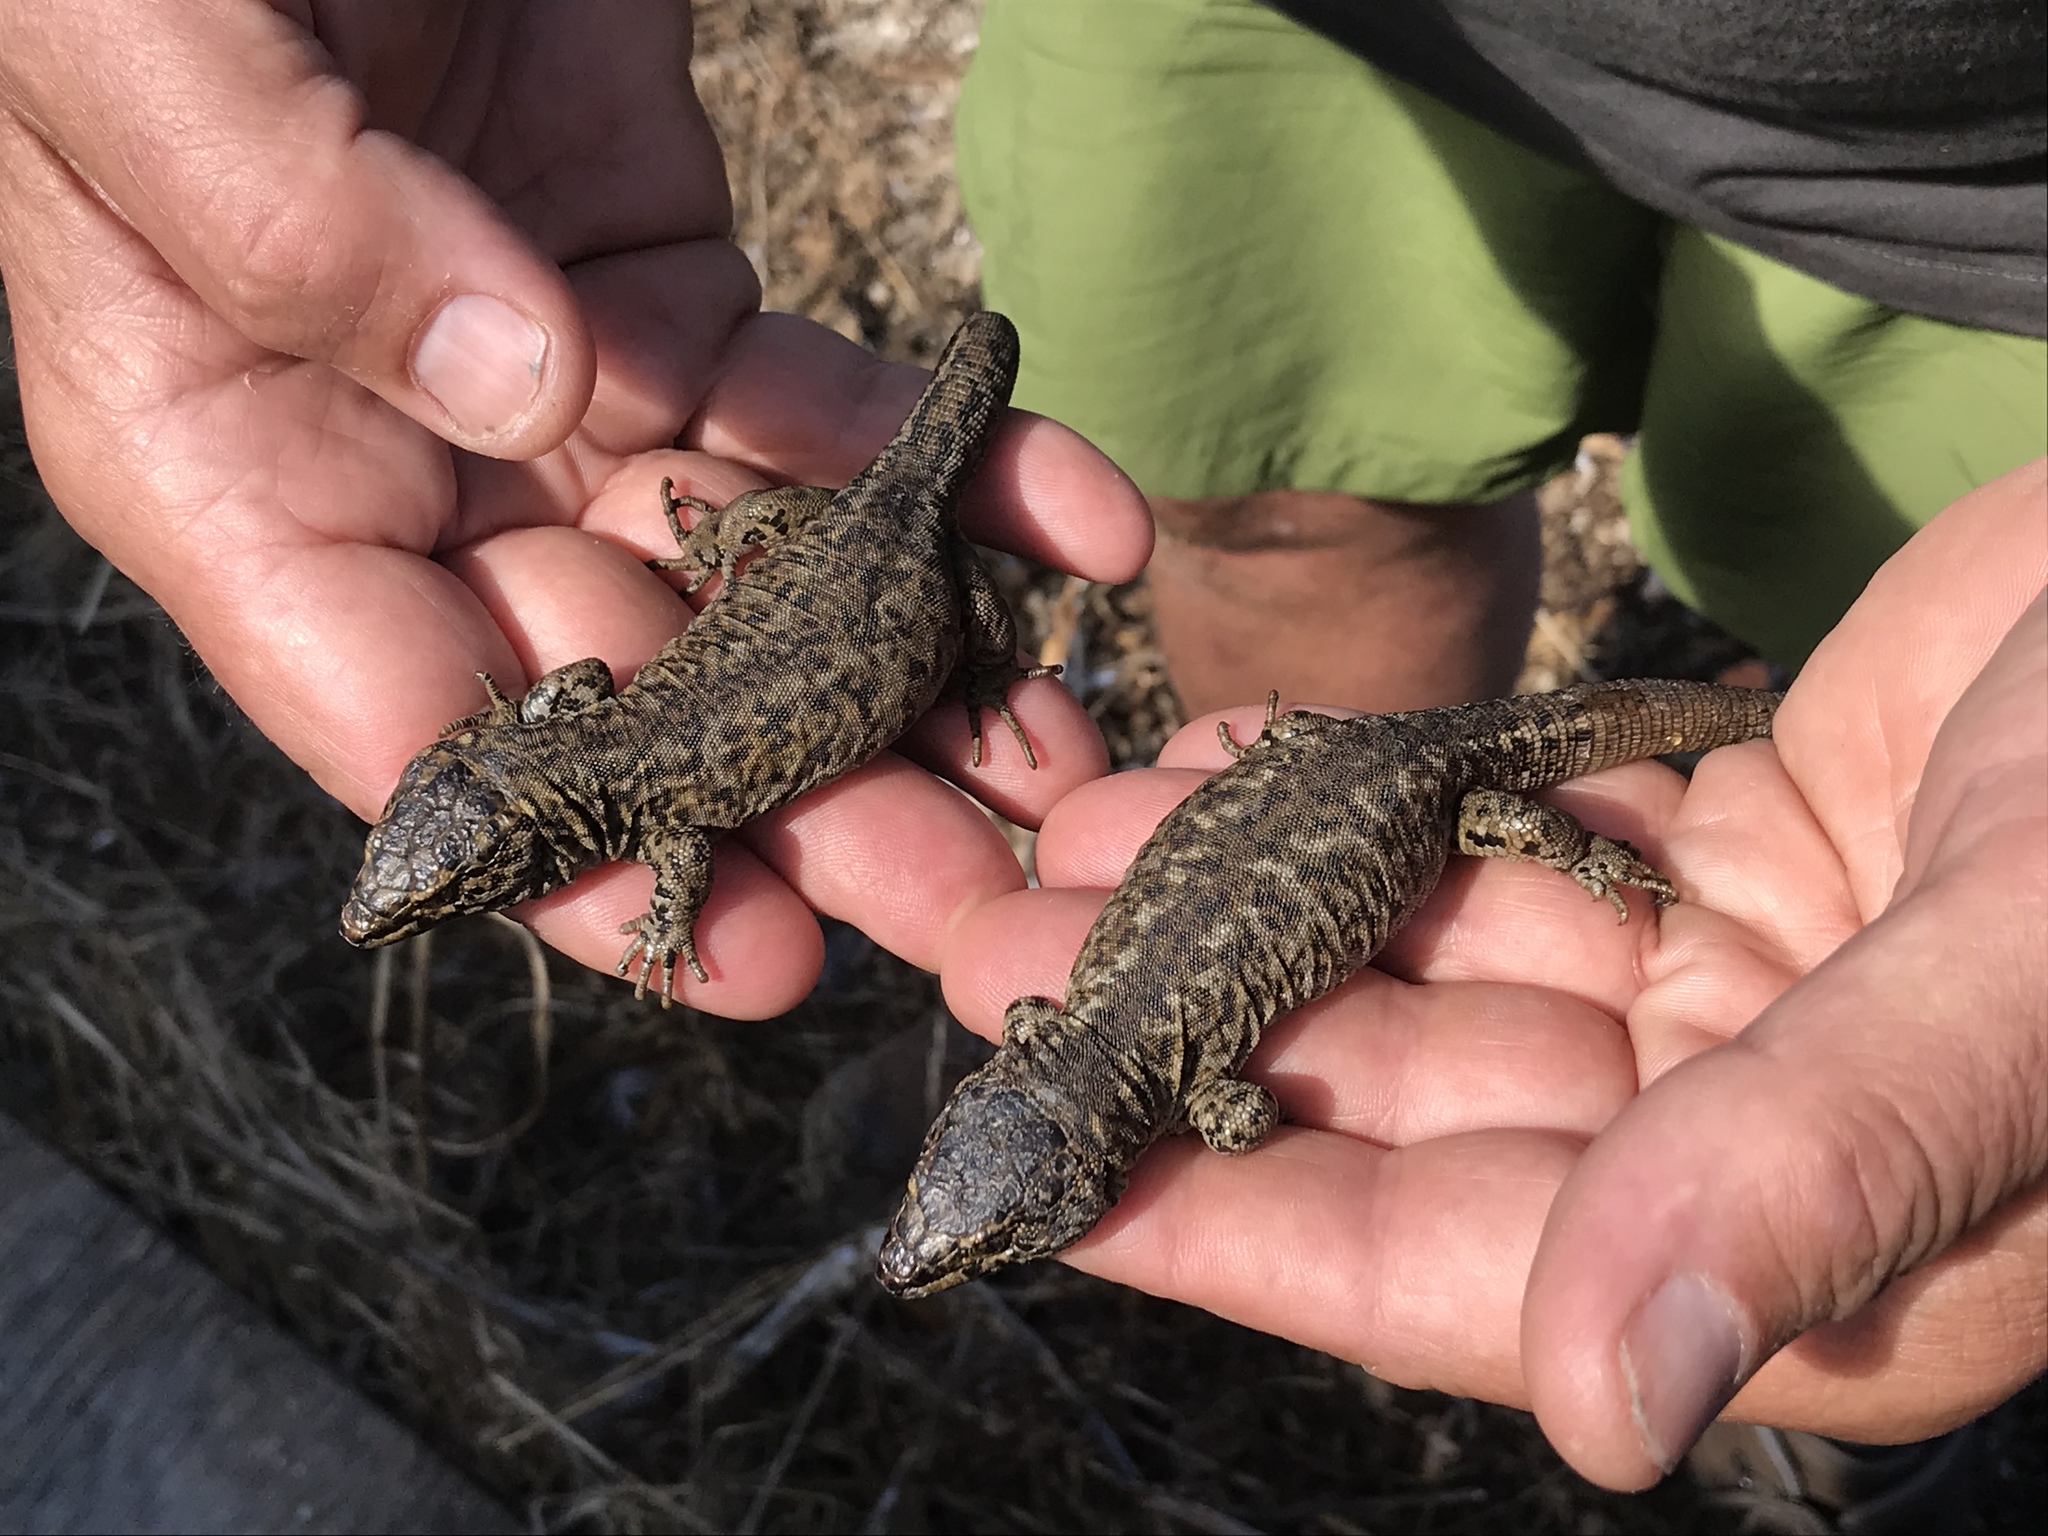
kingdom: Animalia
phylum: Chordata
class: Squamata
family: Xantusiidae
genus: Xantusia
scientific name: Xantusia riversiana
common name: Island night lizard
